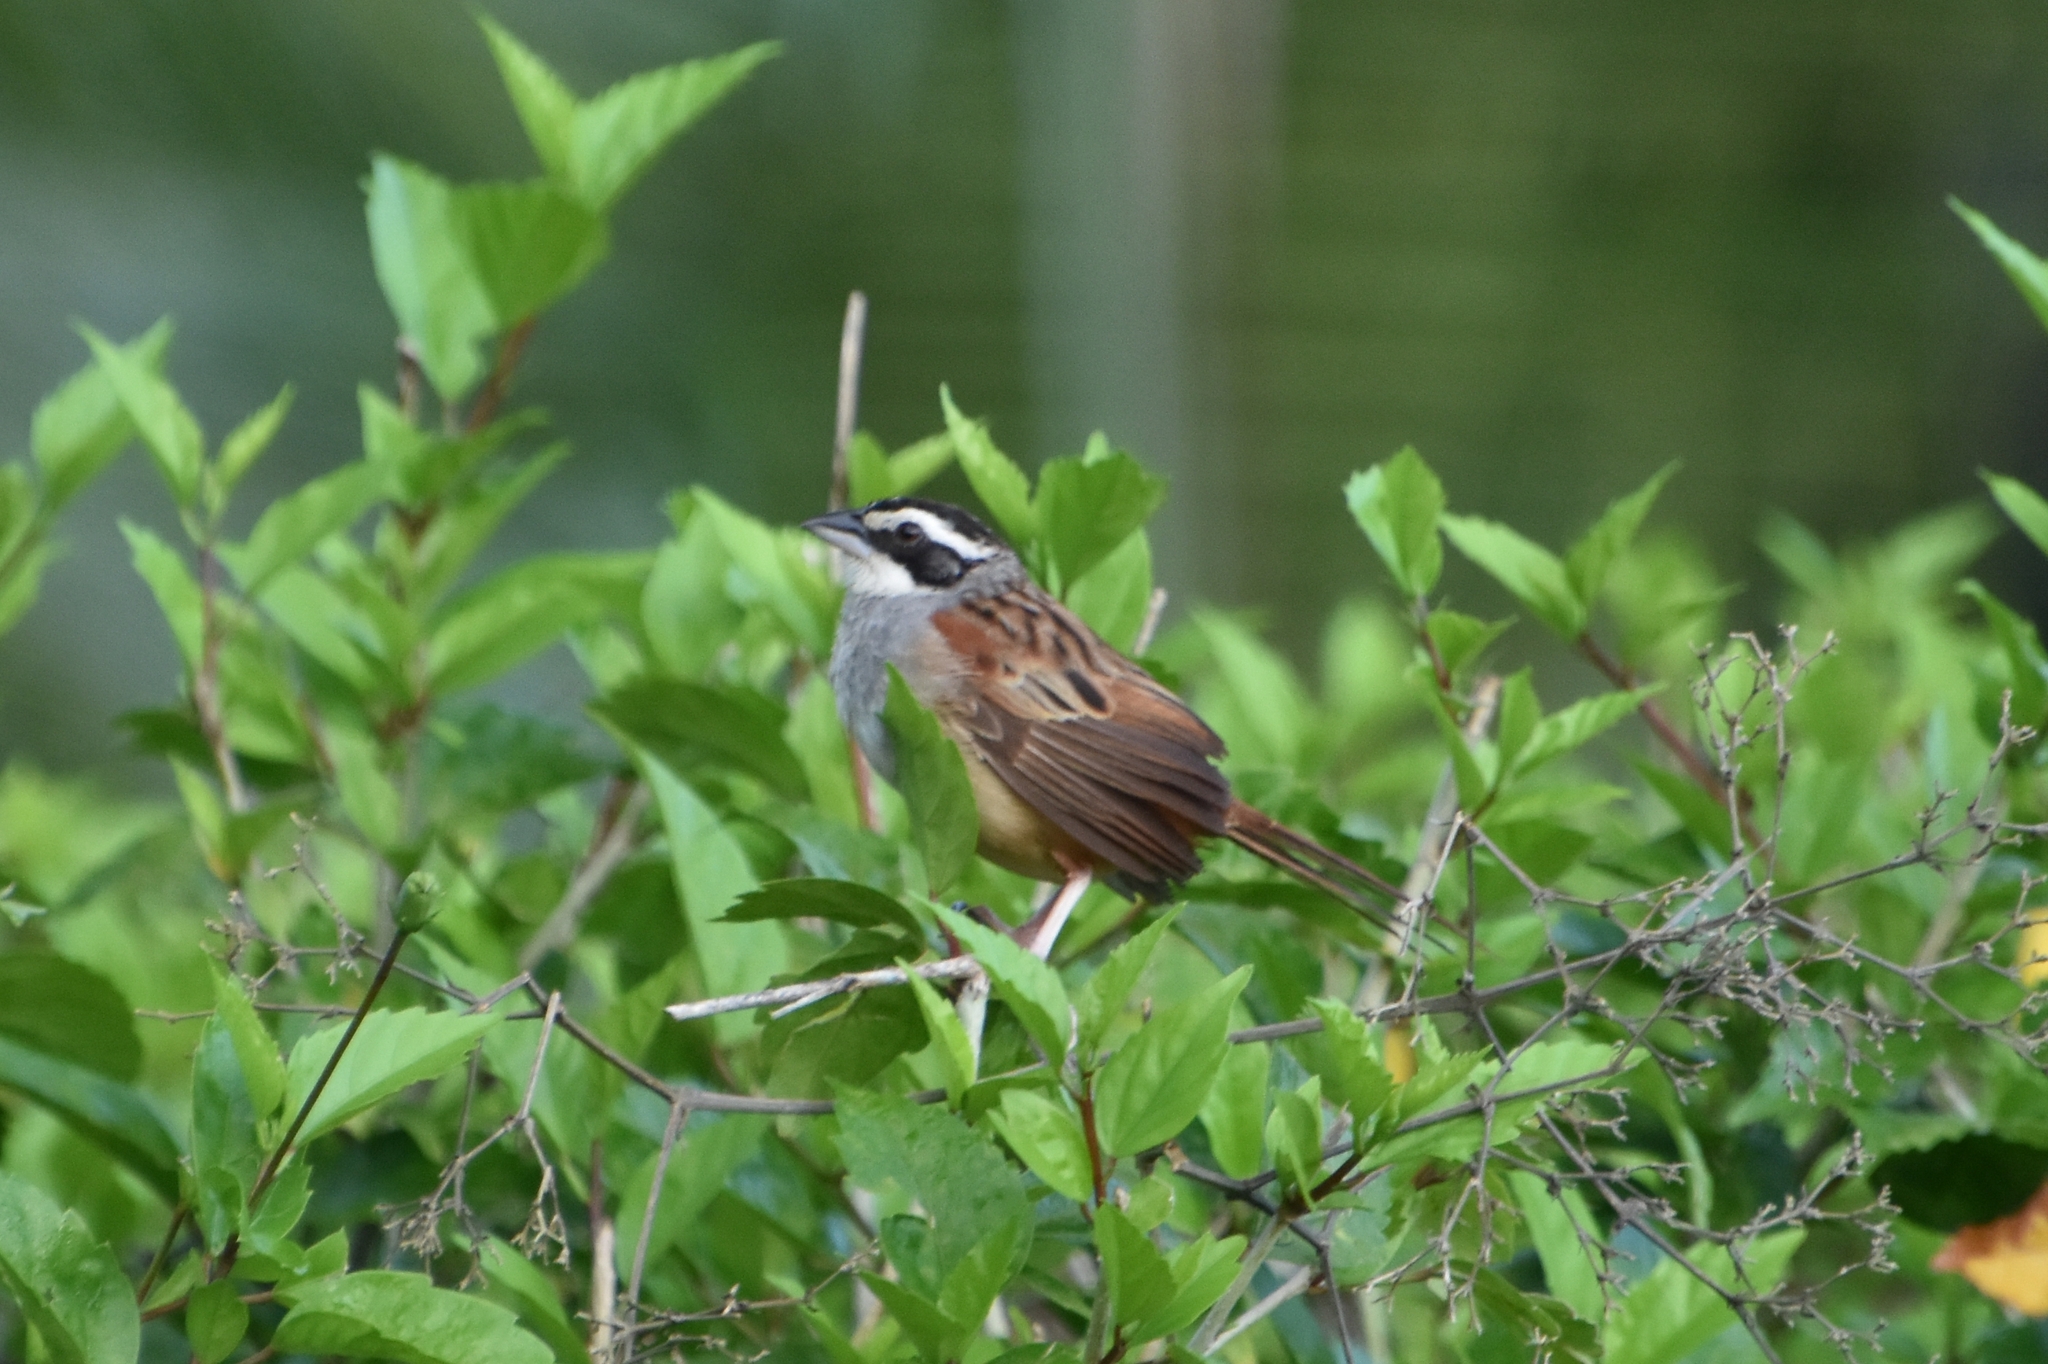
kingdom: Animalia
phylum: Chordata
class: Aves
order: Passeriformes
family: Passerellidae
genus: Peucaea
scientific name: Peucaea ruficauda
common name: Stripe-headed sparrow
